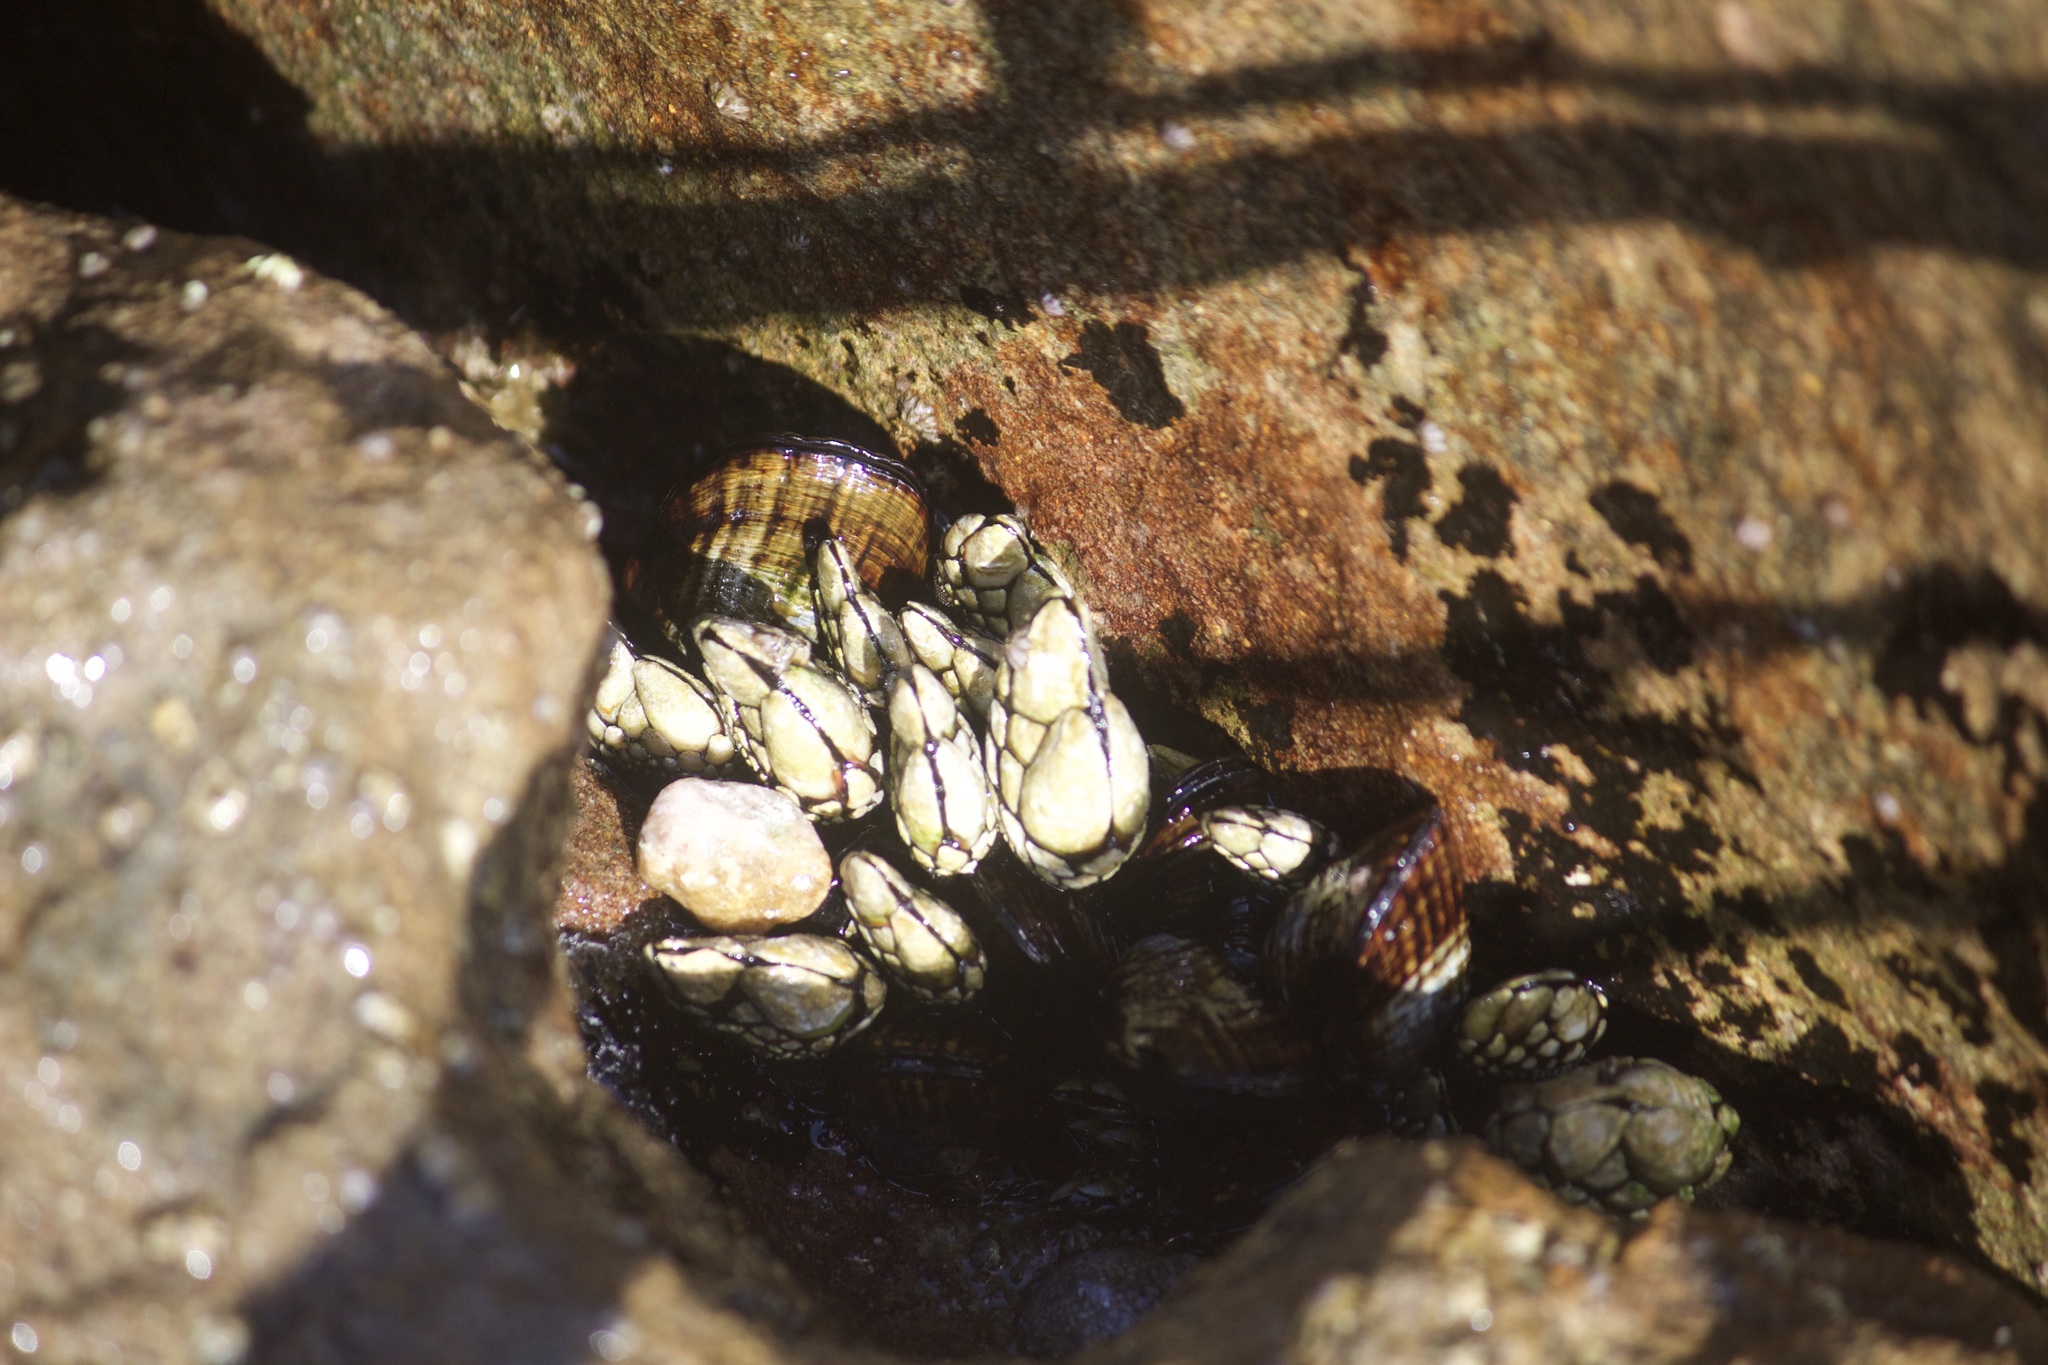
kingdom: Animalia
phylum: Arthropoda
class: Maxillopoda
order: Pedunculata
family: Pollicipedidae
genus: Pollicipes
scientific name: Pollicipes polymerus
